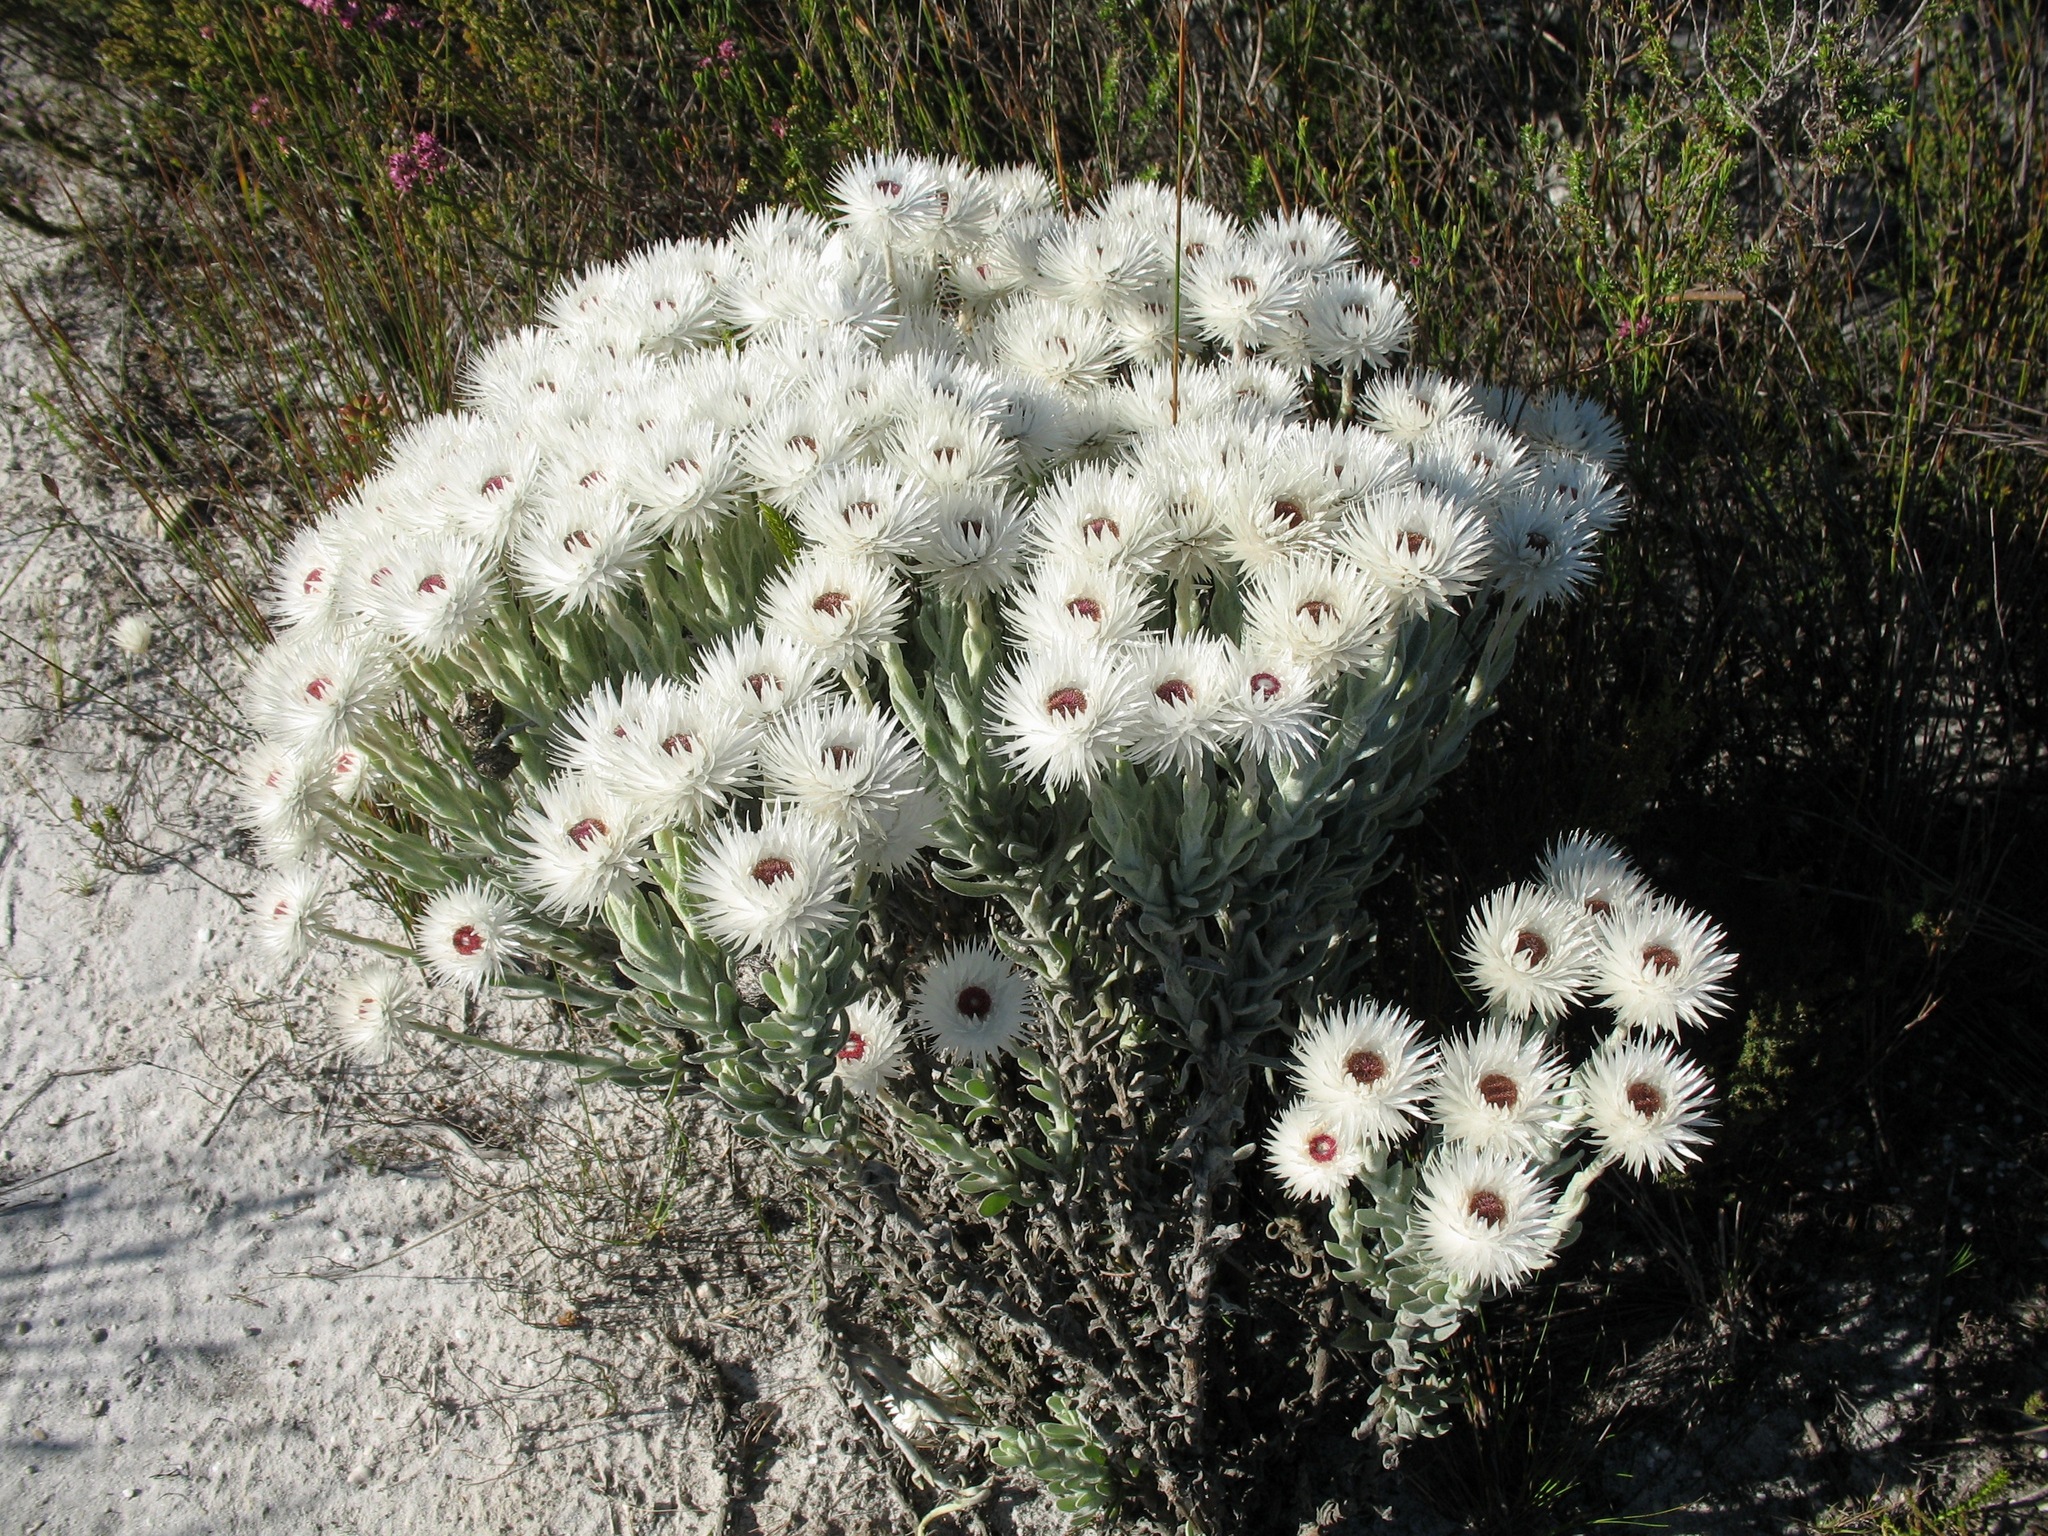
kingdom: Plantae
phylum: Tracheophyta
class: Magnoliopsida
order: Asterales
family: Asteraceae
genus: Syncarpha
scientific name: Syncarpha vestita
